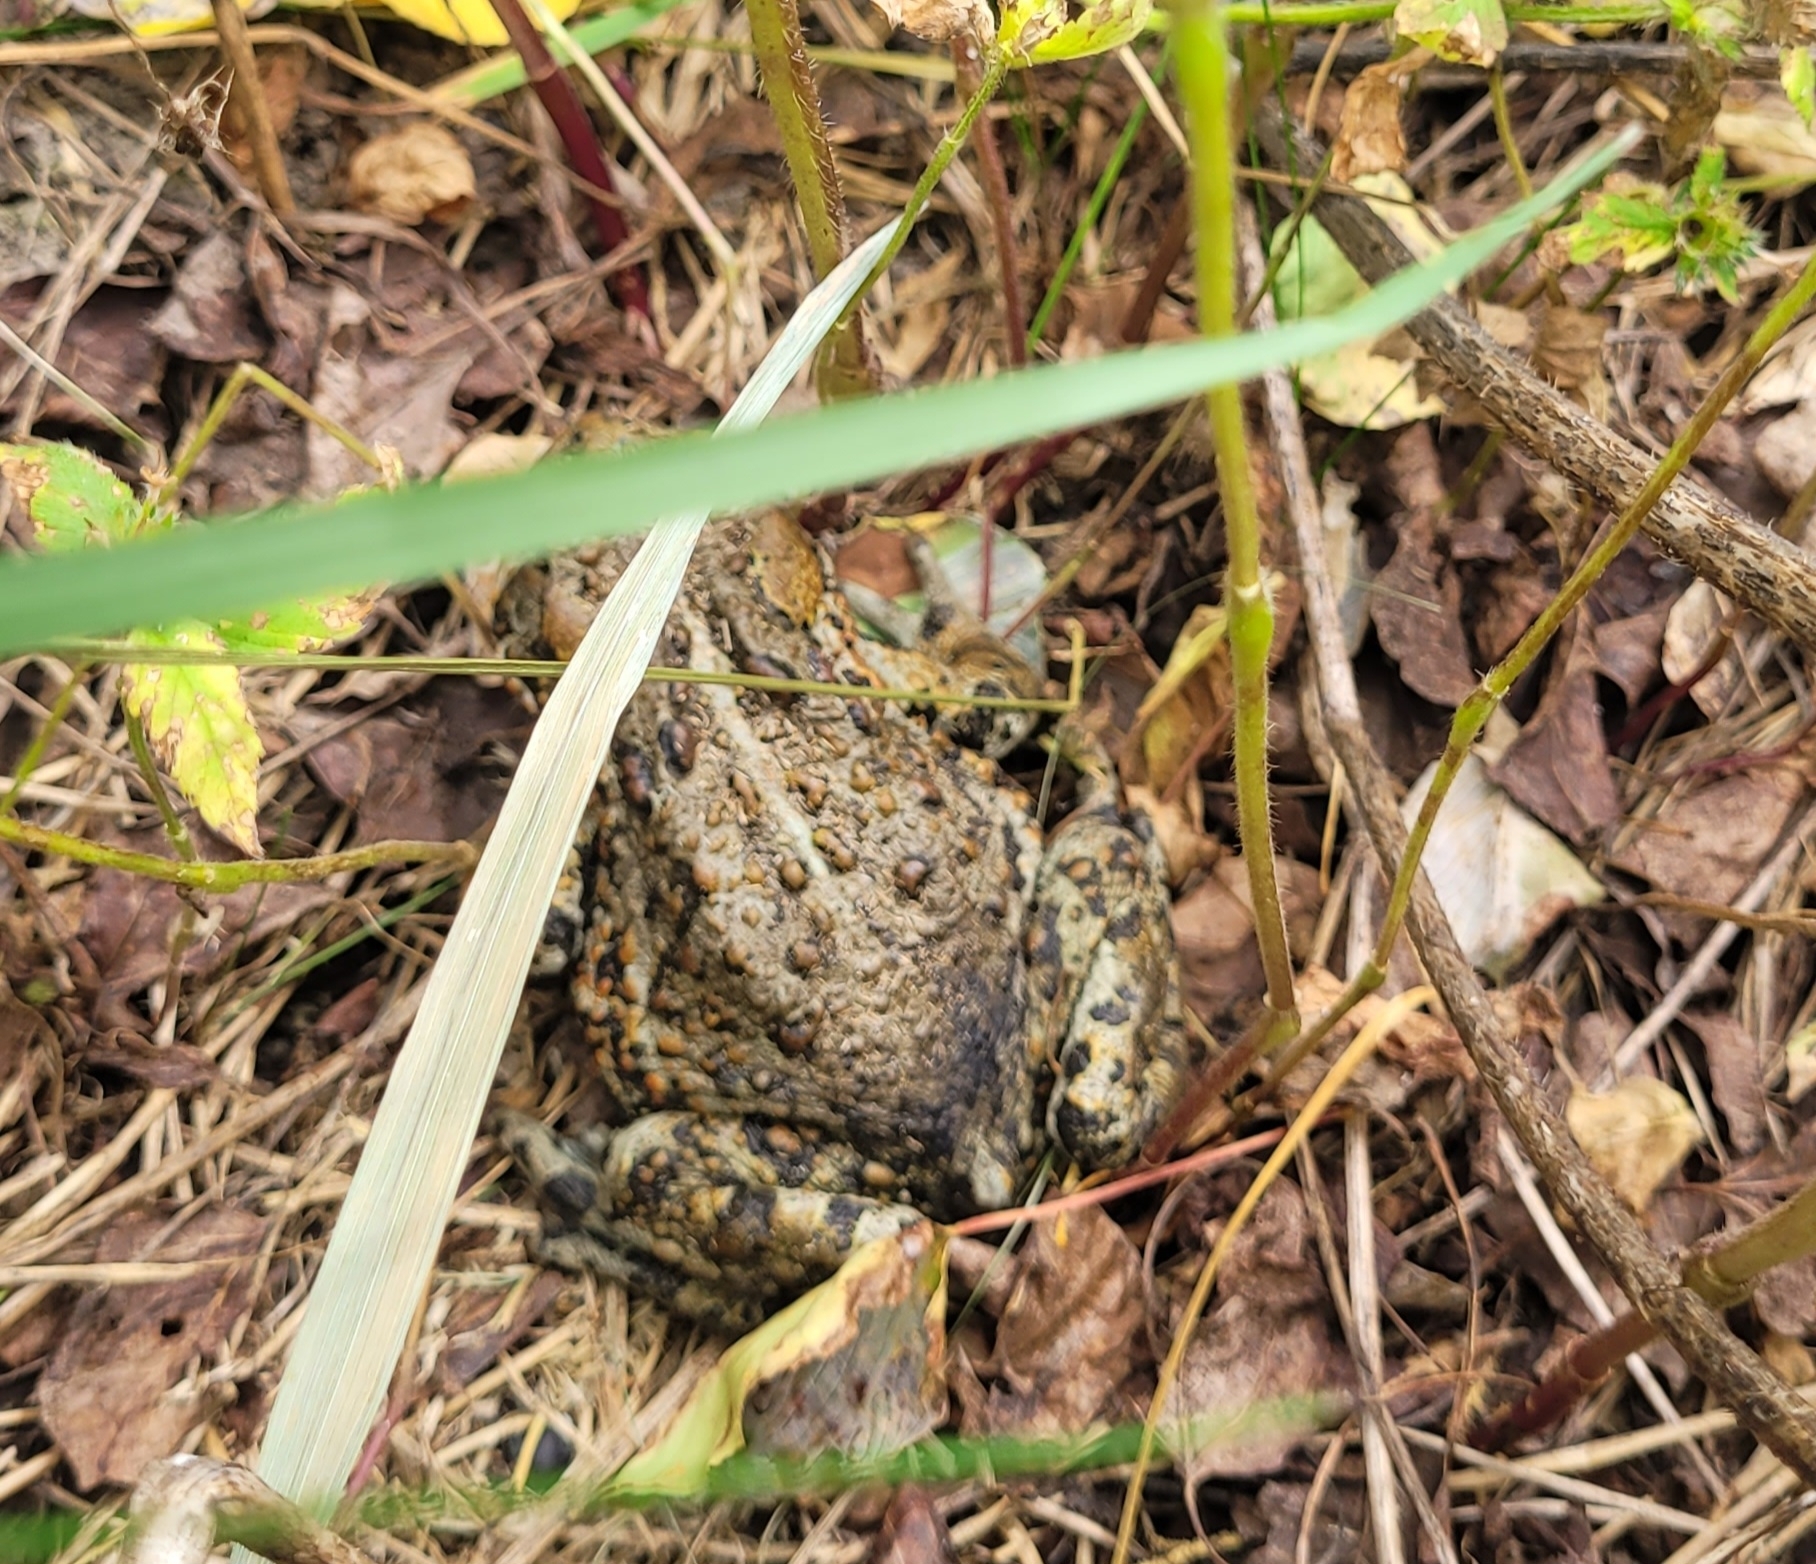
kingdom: Animalia
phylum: Chordata
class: Amphibia
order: Anura
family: Bufonidae
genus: Anaxyrus
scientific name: Anaxyrus boreas
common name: Western toad
